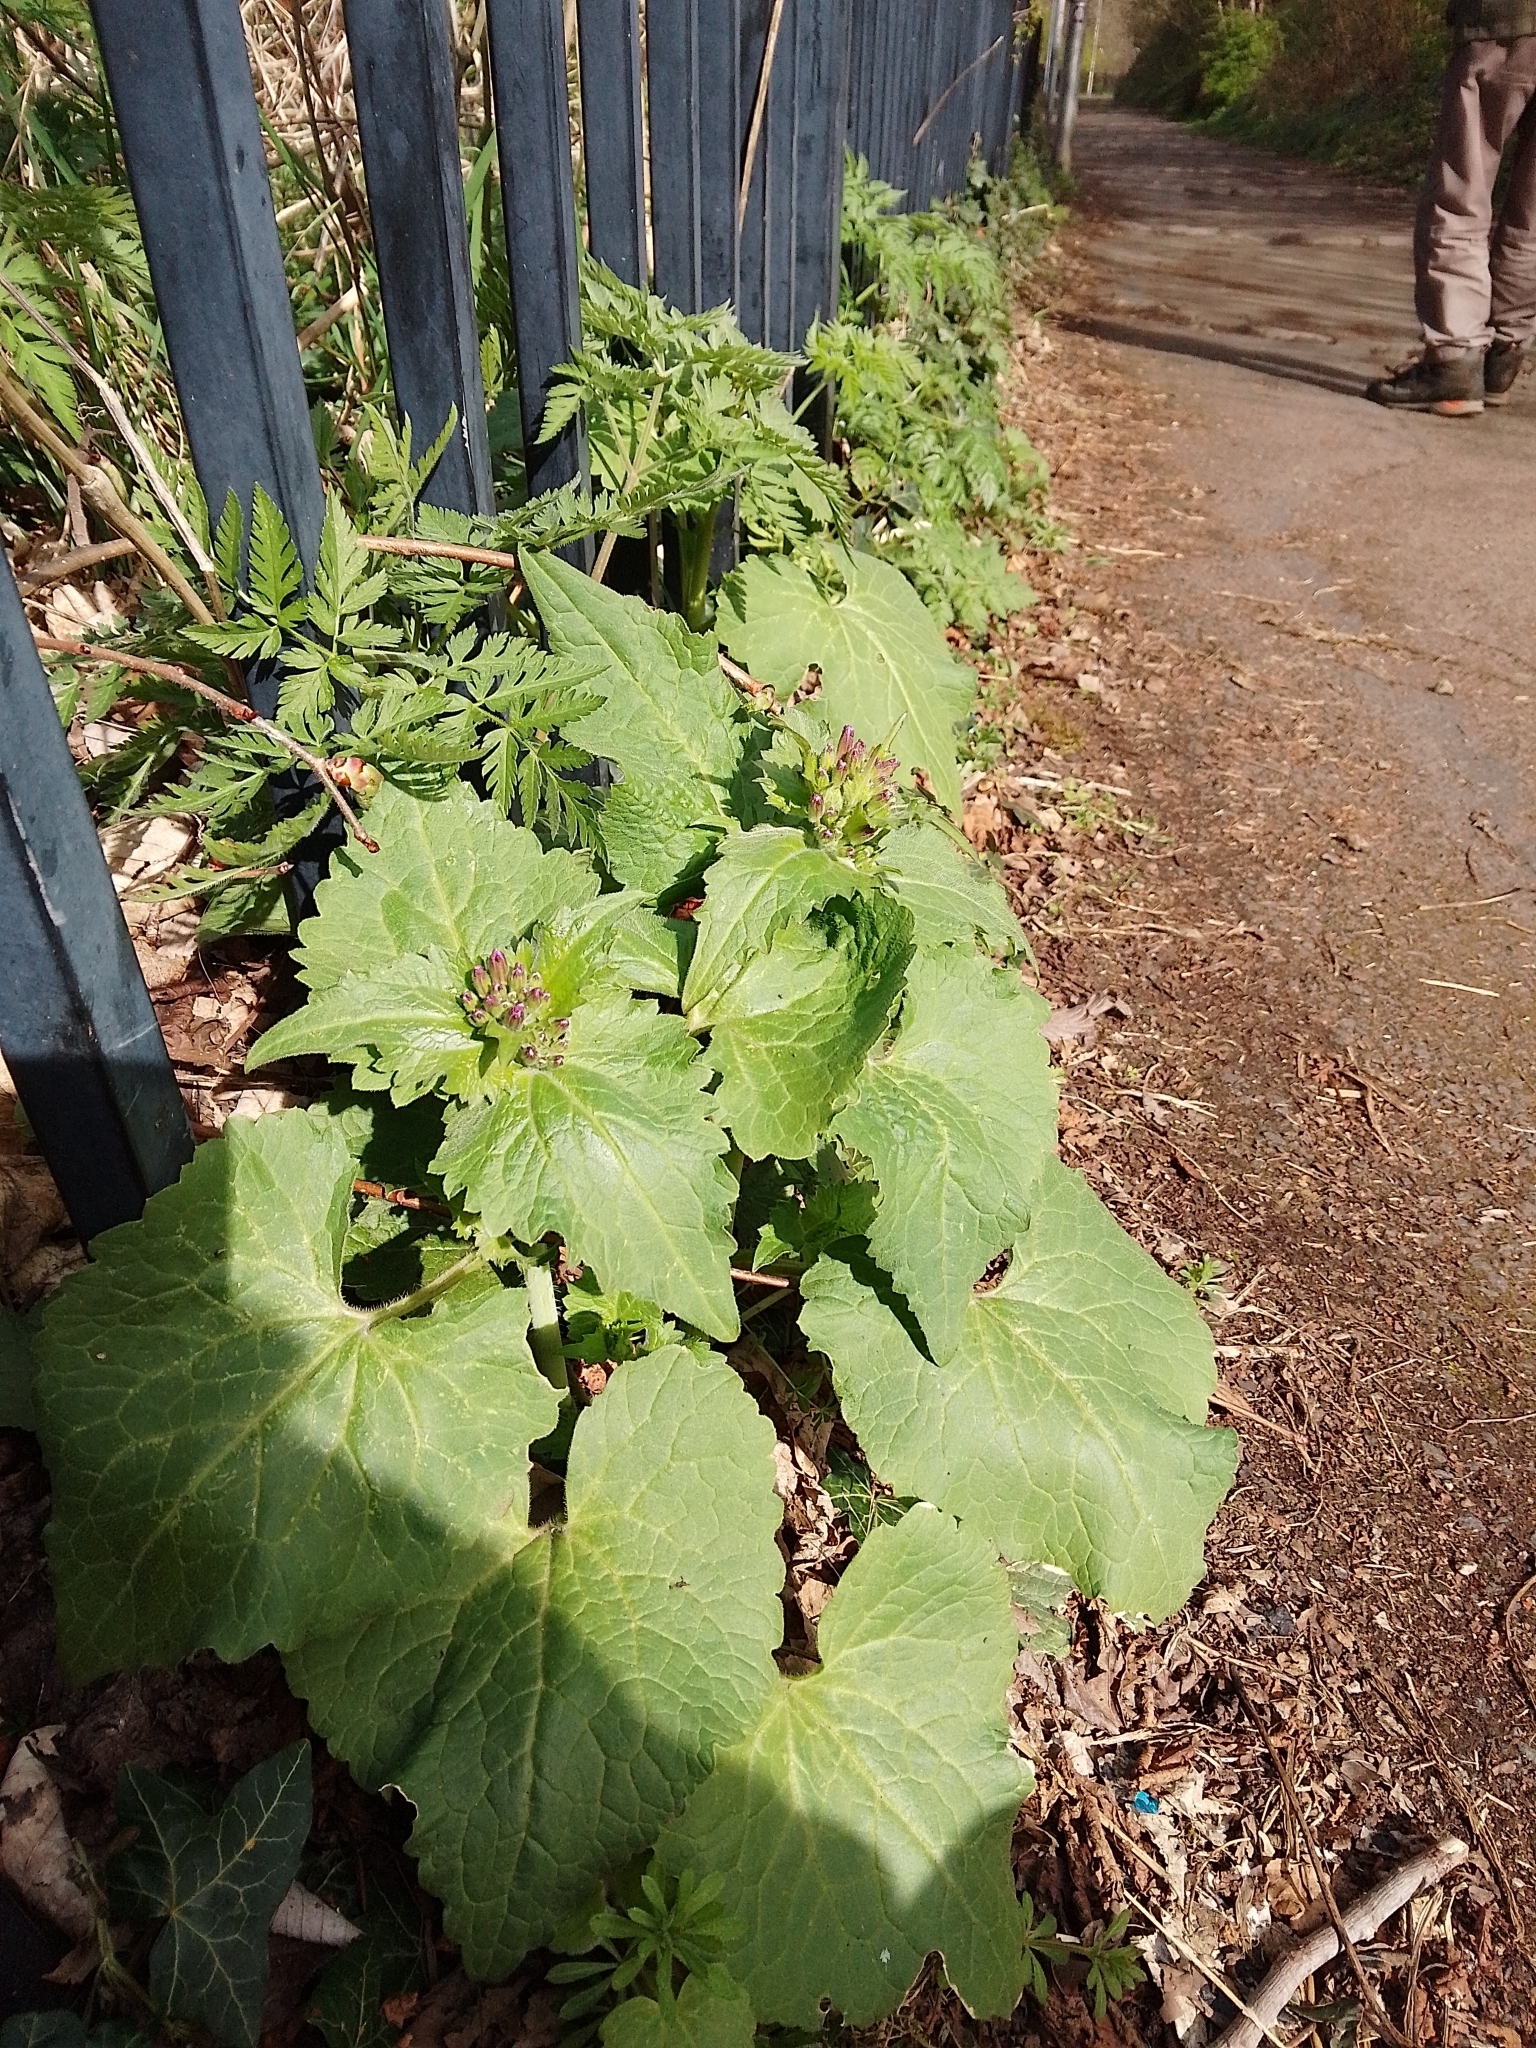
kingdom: Plantae
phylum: Tracheophyta
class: Magnoliopsida
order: Brassicales
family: Brassicaceae
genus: Lunaria
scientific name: Lunaria annua
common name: Honesty
